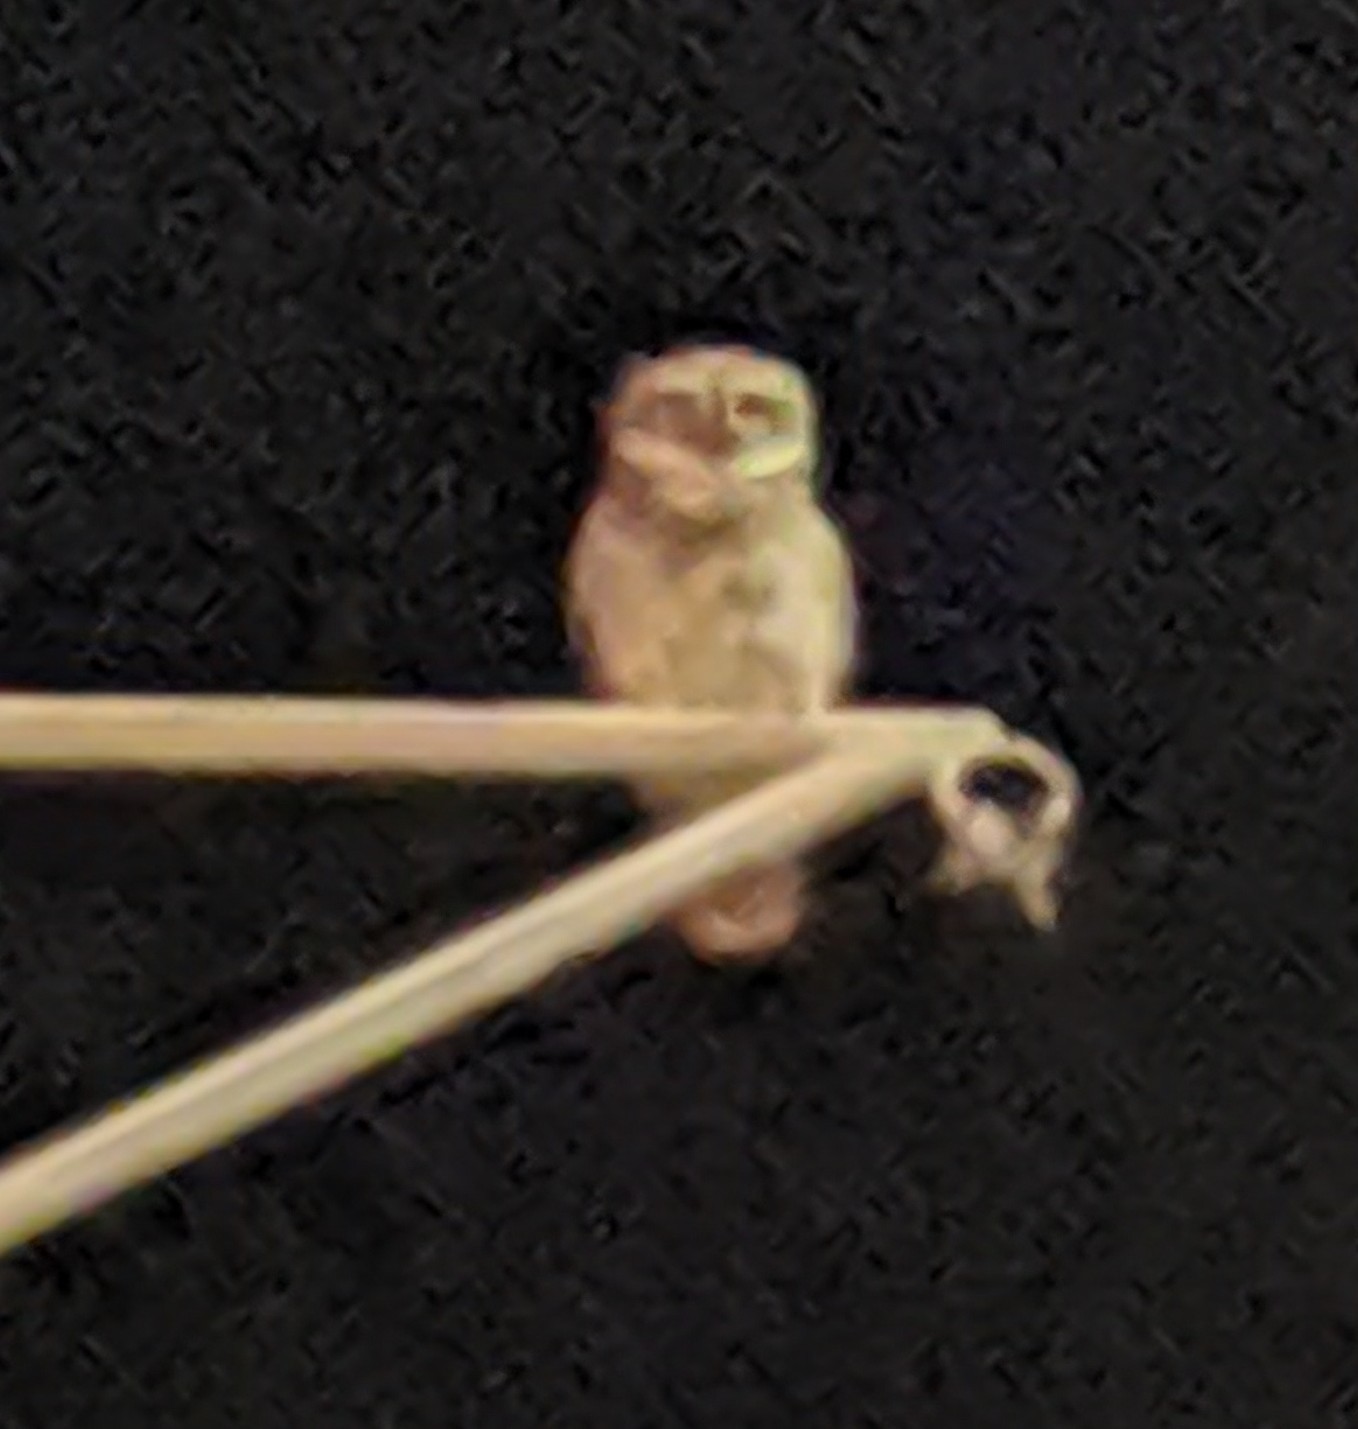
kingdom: Animalia
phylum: Chordata
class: Aves
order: Strigiformes
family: Strigidae
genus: Athene
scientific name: Athene brama
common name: Spotted owlet
